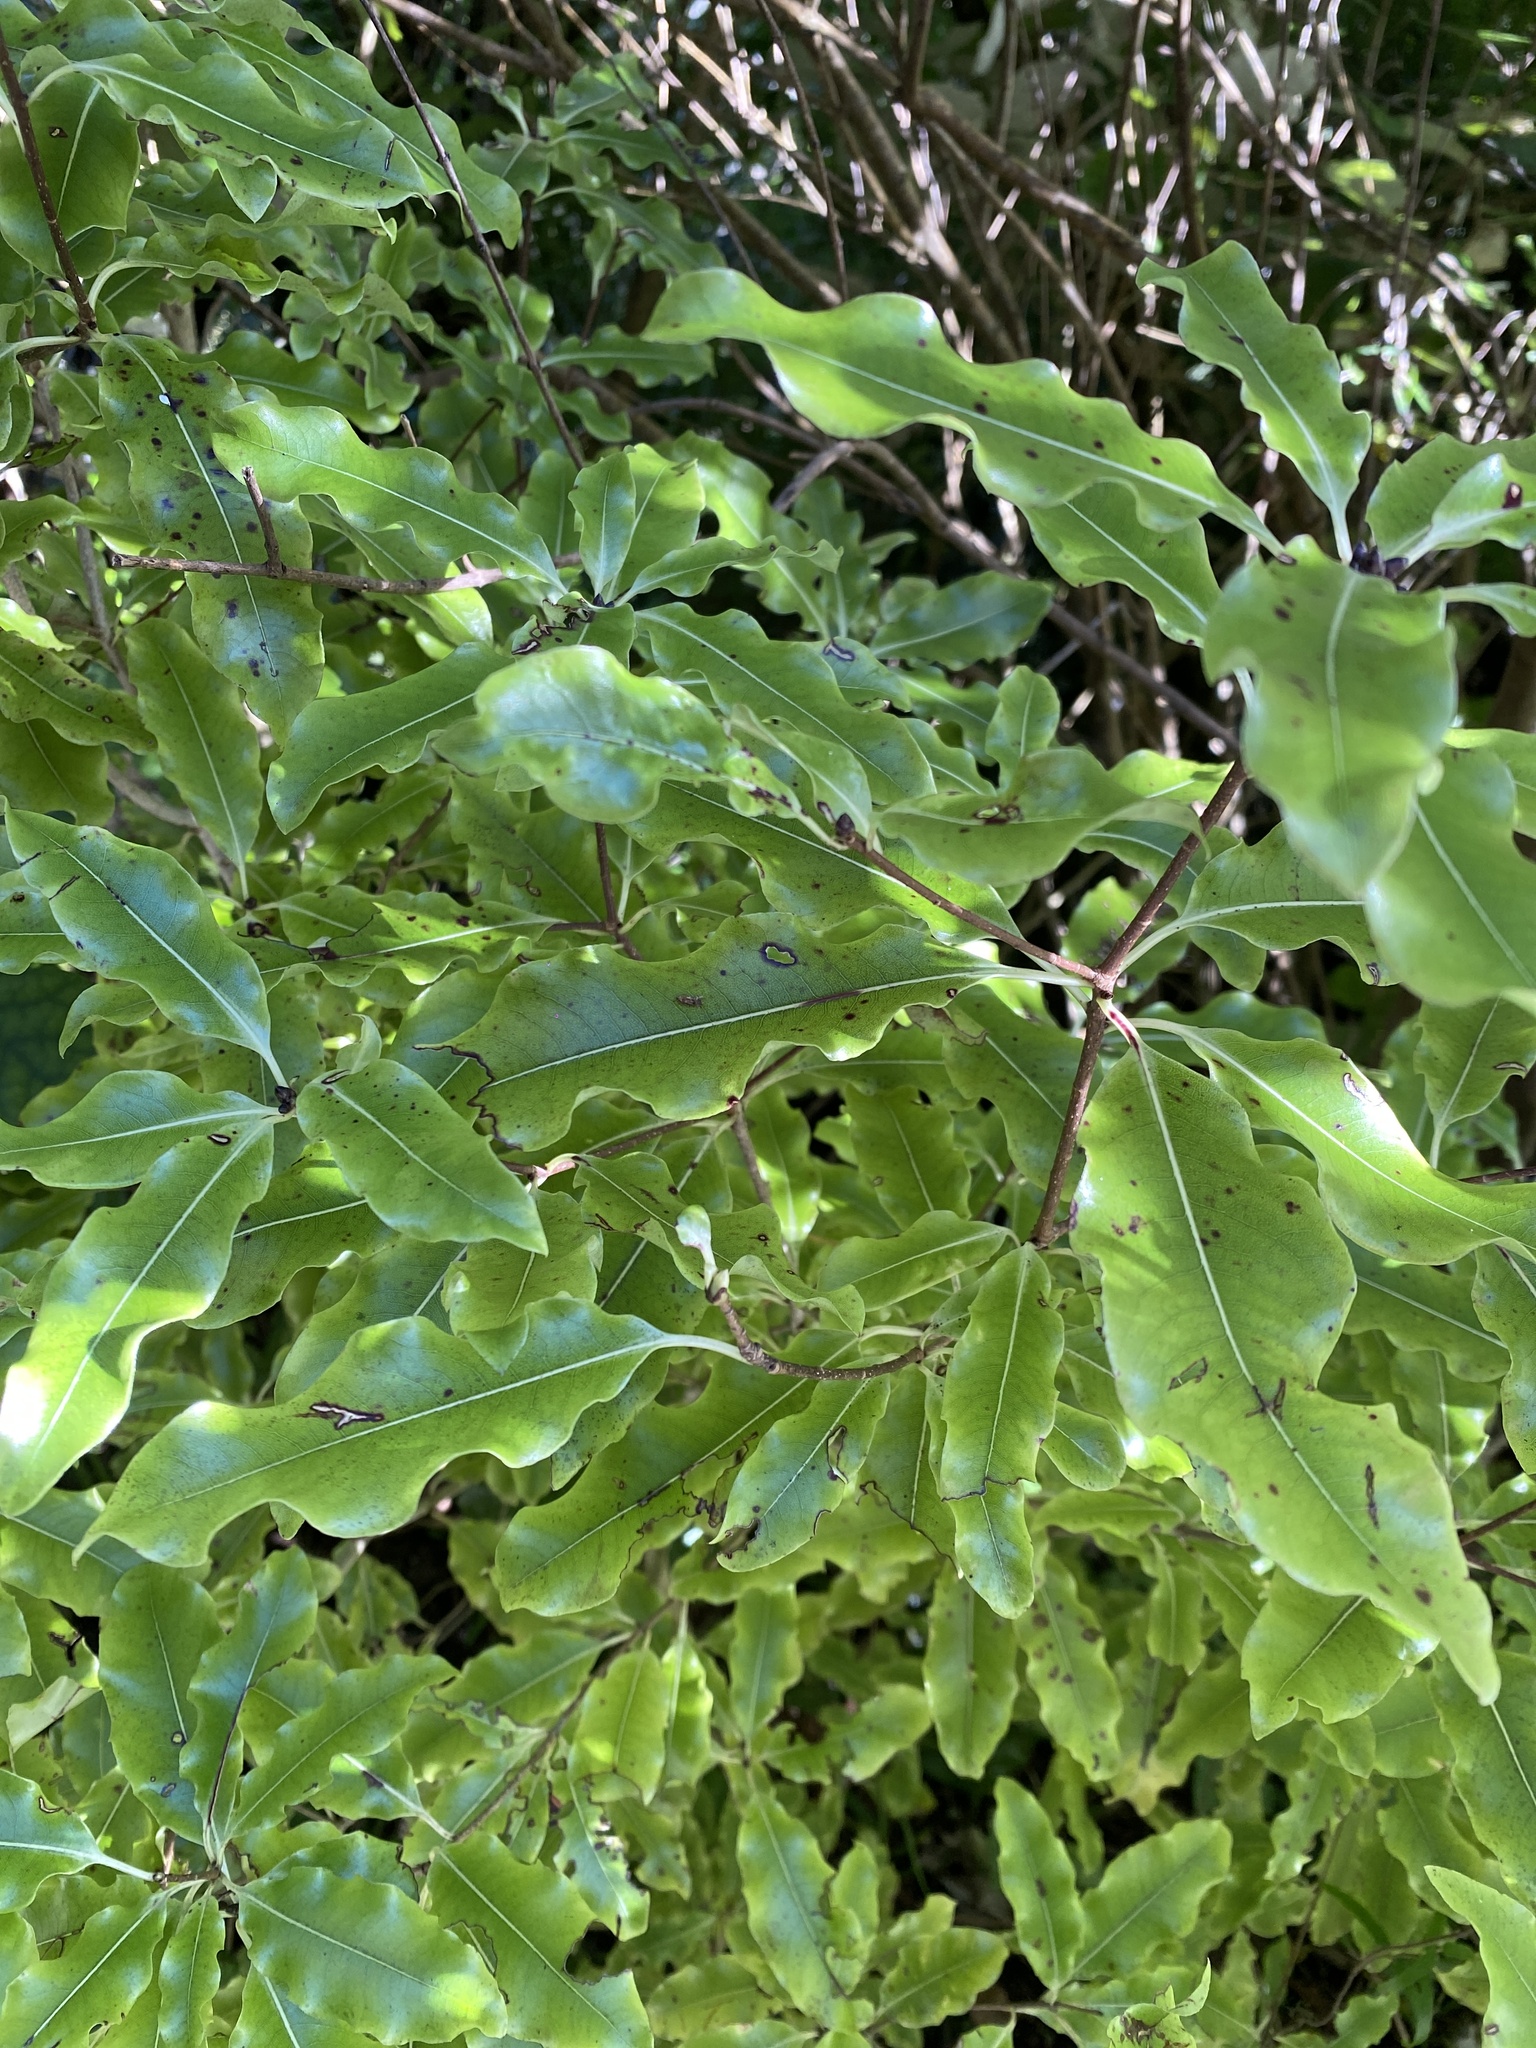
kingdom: Plantae
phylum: Tracheophyta
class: Magnoliopsida
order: Apiales
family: Pittosporaceae
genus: Pittosporum
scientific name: Pittosporum eugenioides
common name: Lemonwood
